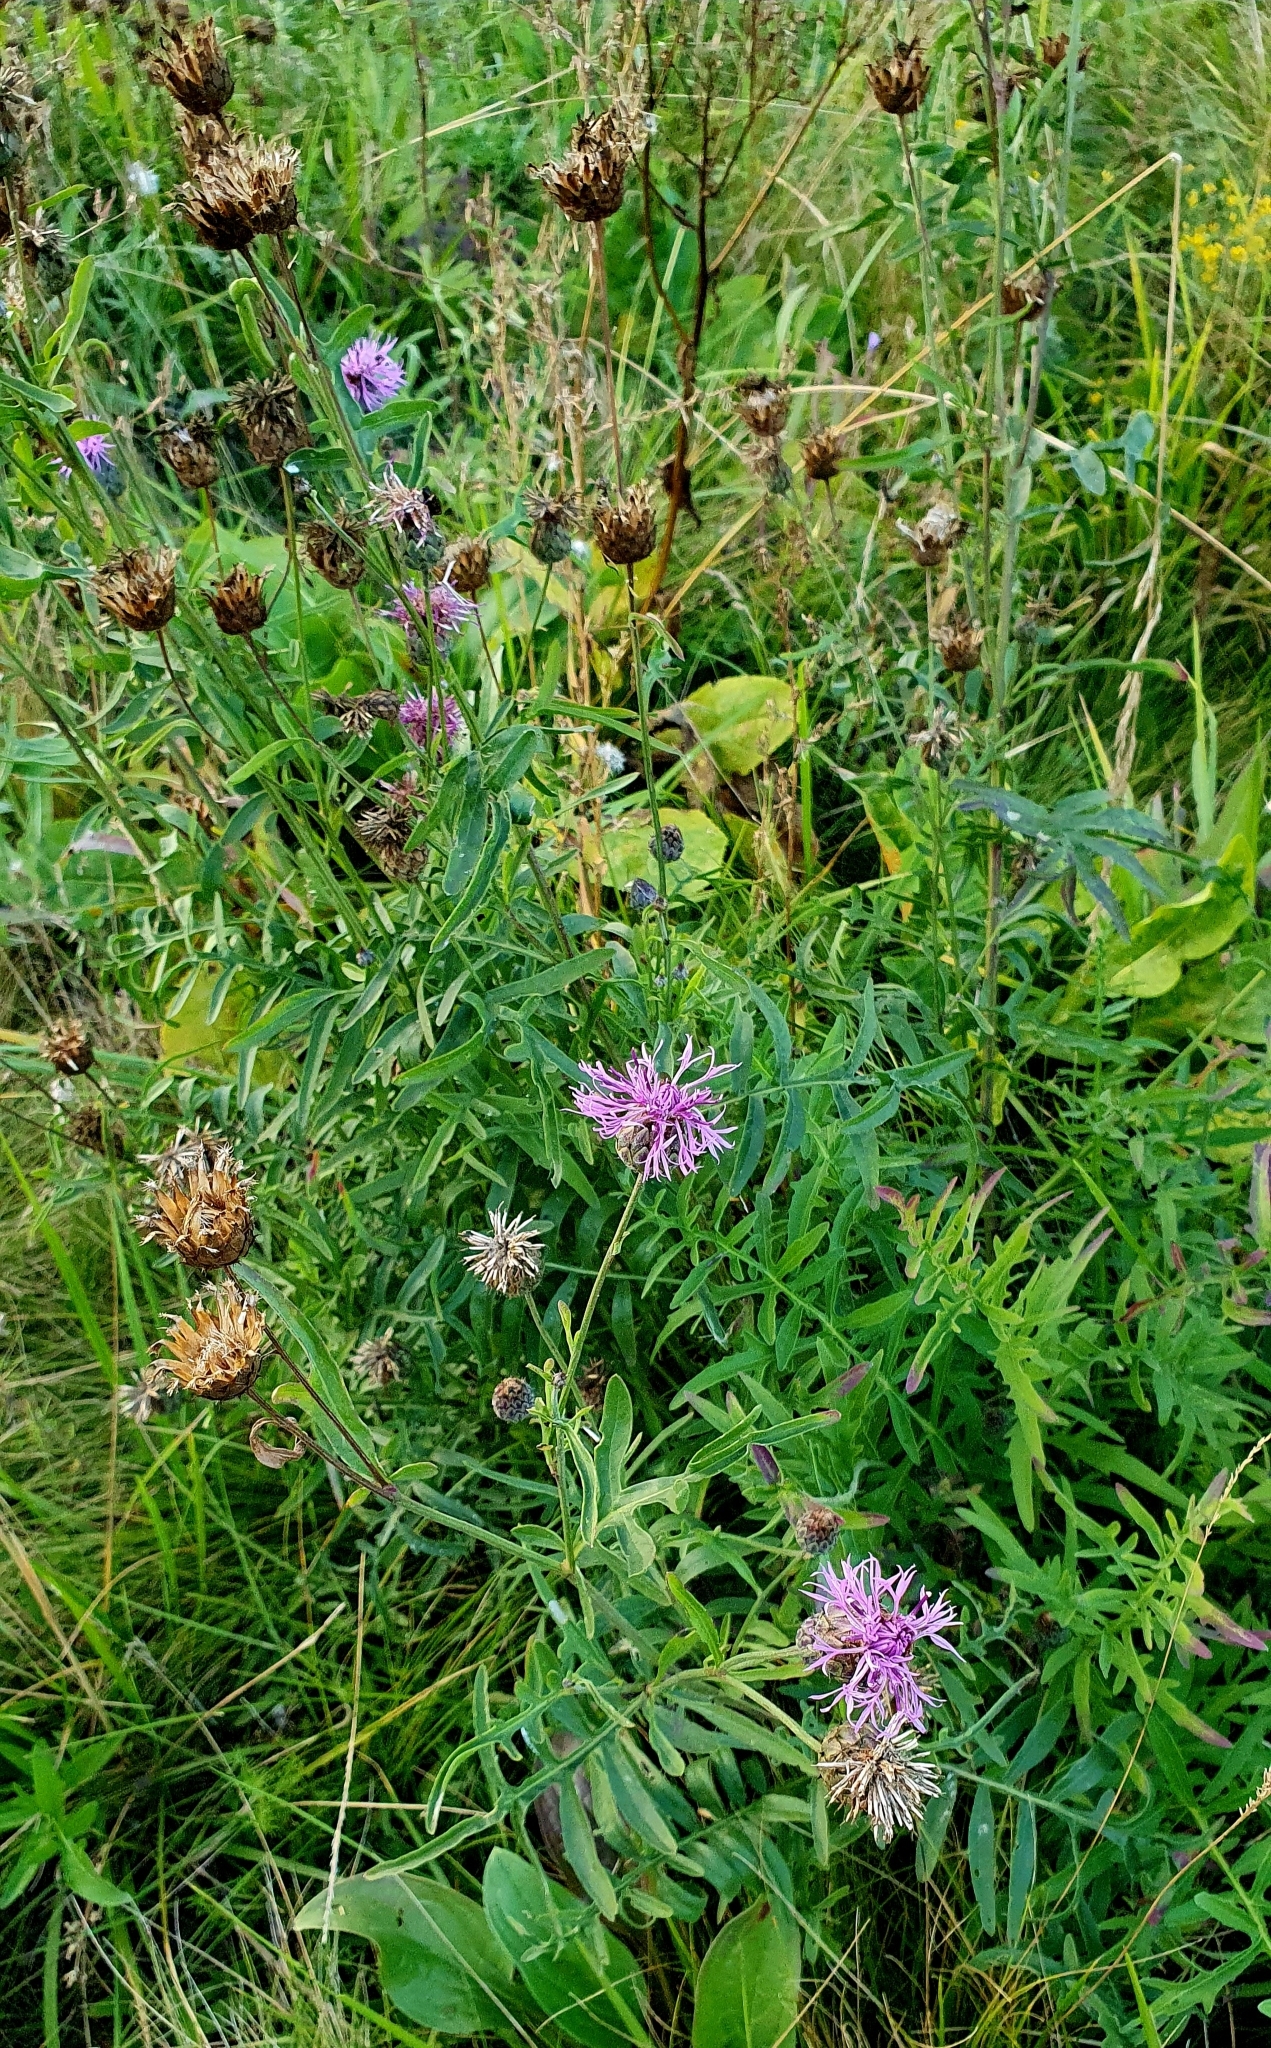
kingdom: Plantae
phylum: Tracheophyta
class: Magnoliopsida
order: Asterales
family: Asteraceae
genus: Centaurea
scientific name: Centaurea scabiosa
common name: Greater knapweed
